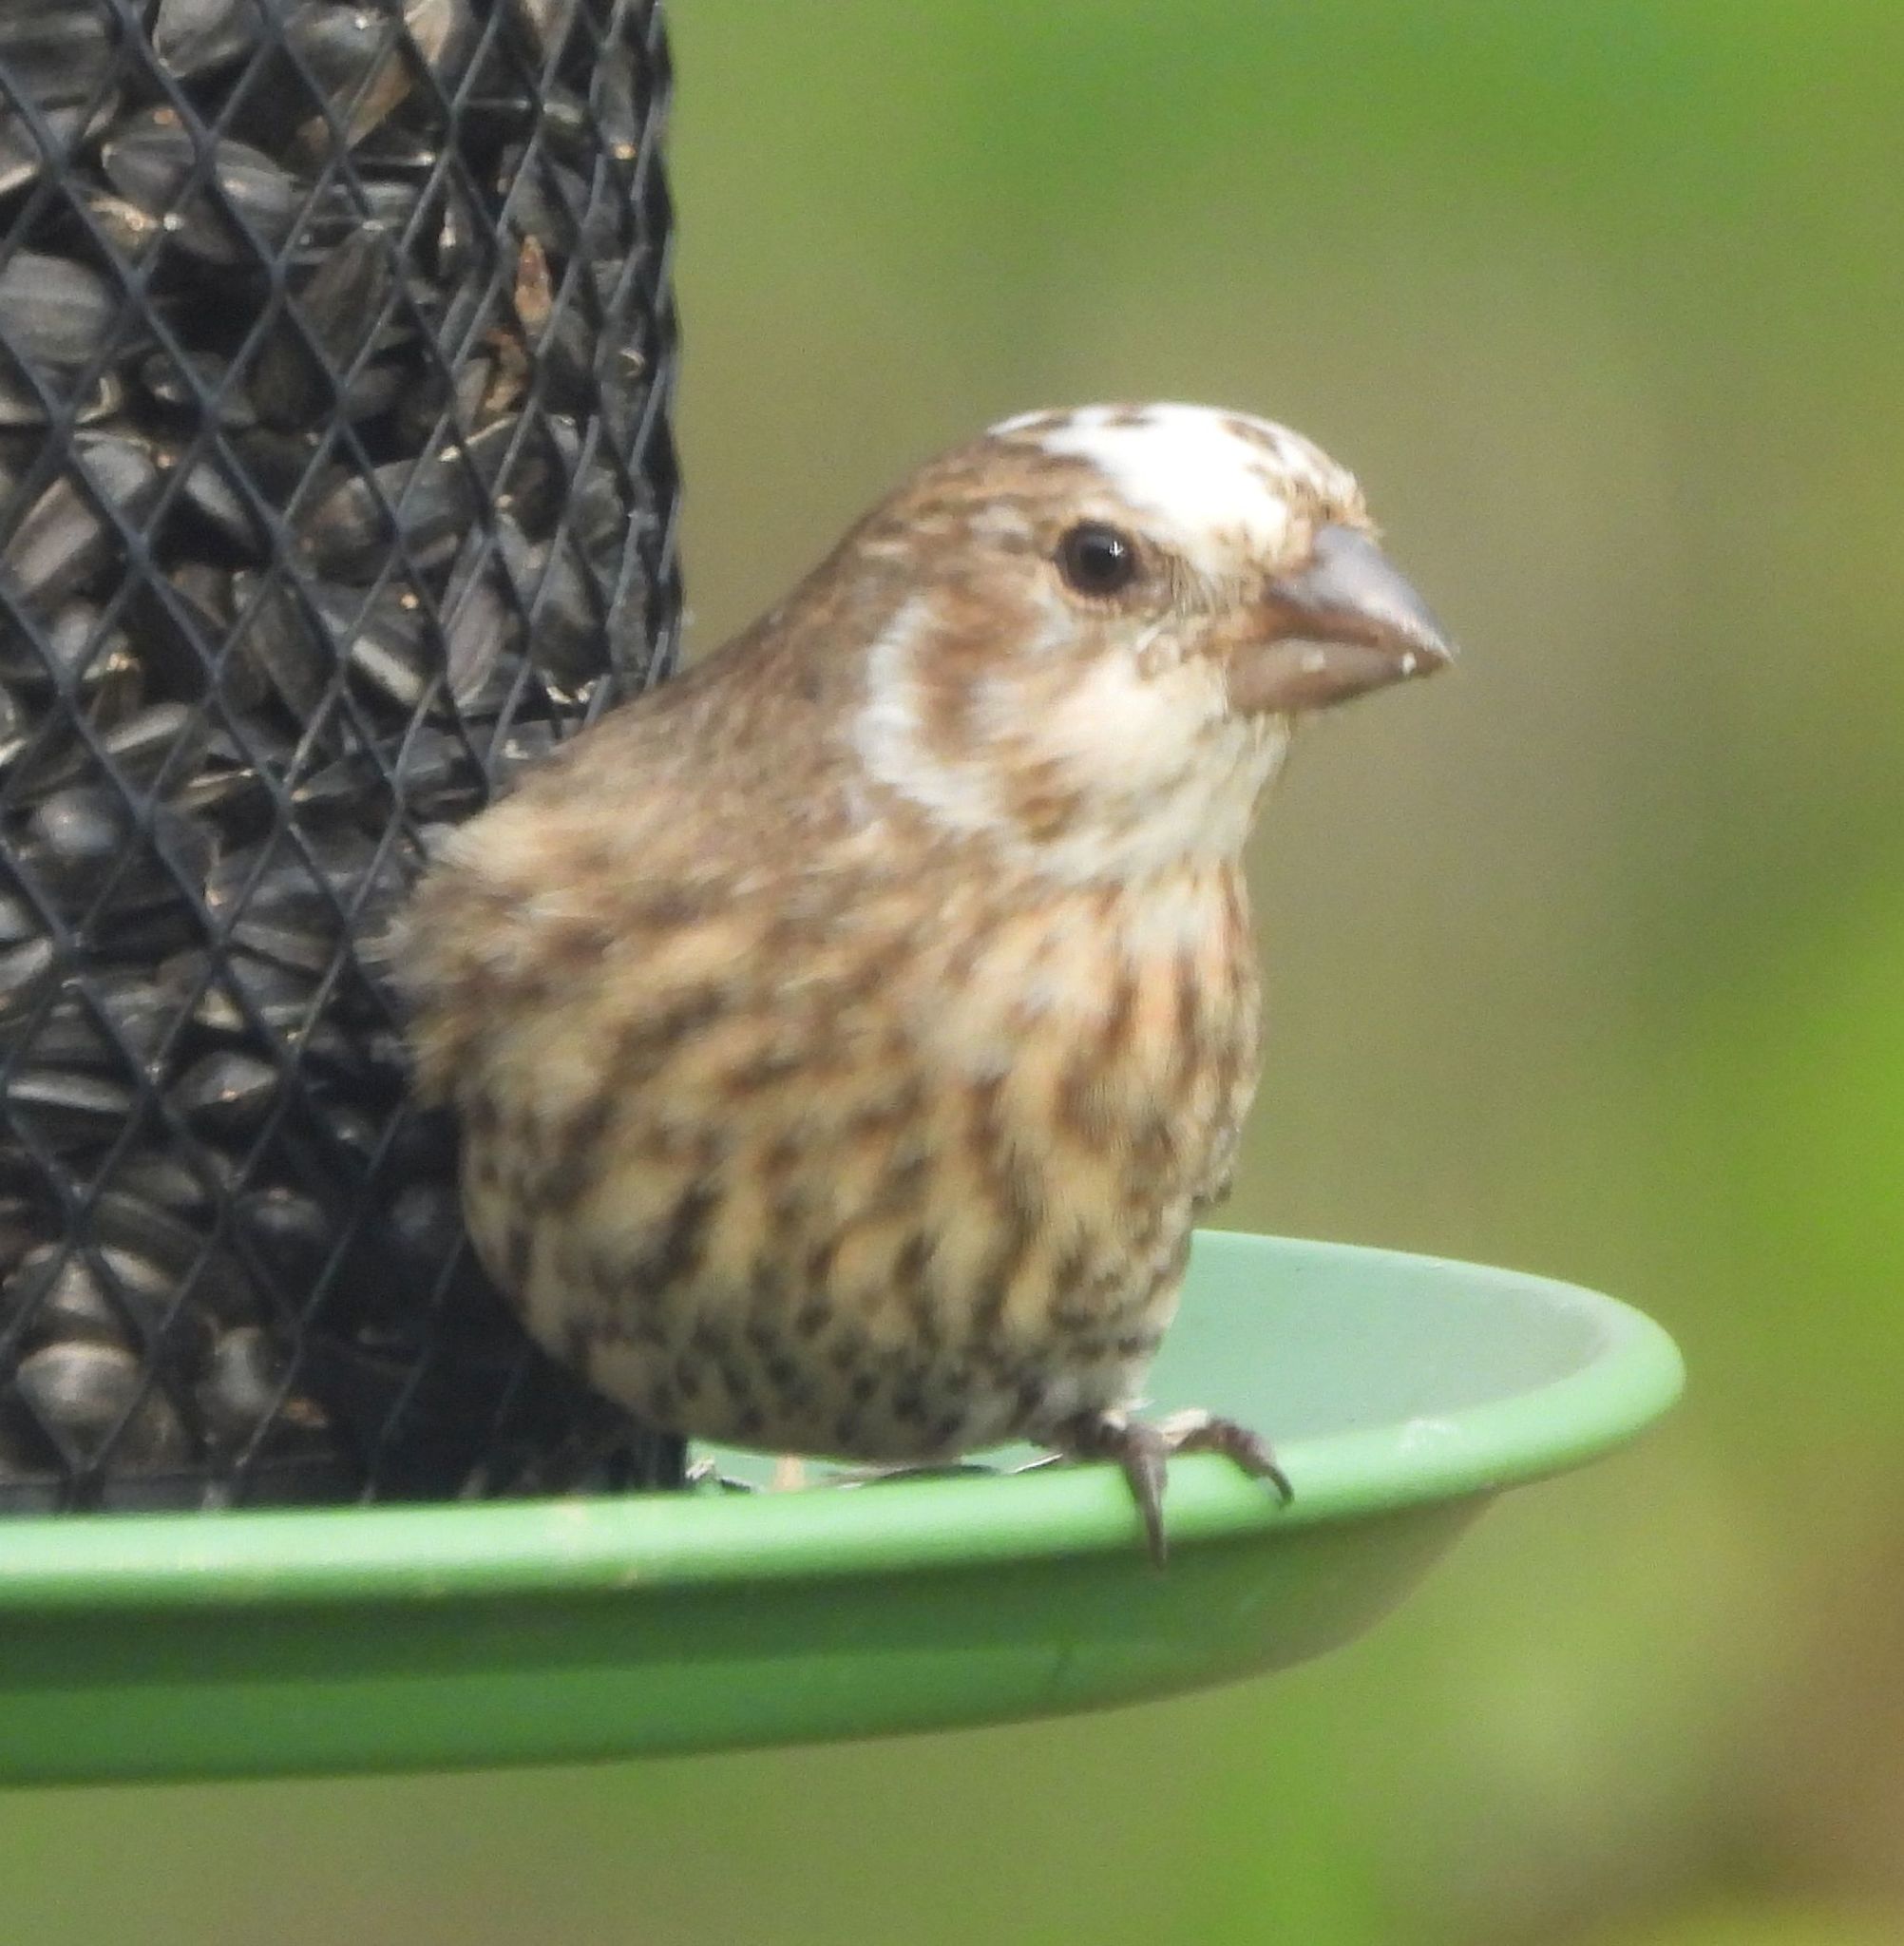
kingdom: Animalia
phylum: Chordata
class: Aves
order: Passeriformes
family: Fringillidae
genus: Haemorhous
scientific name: Haemorhous mexicanus
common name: House finch
